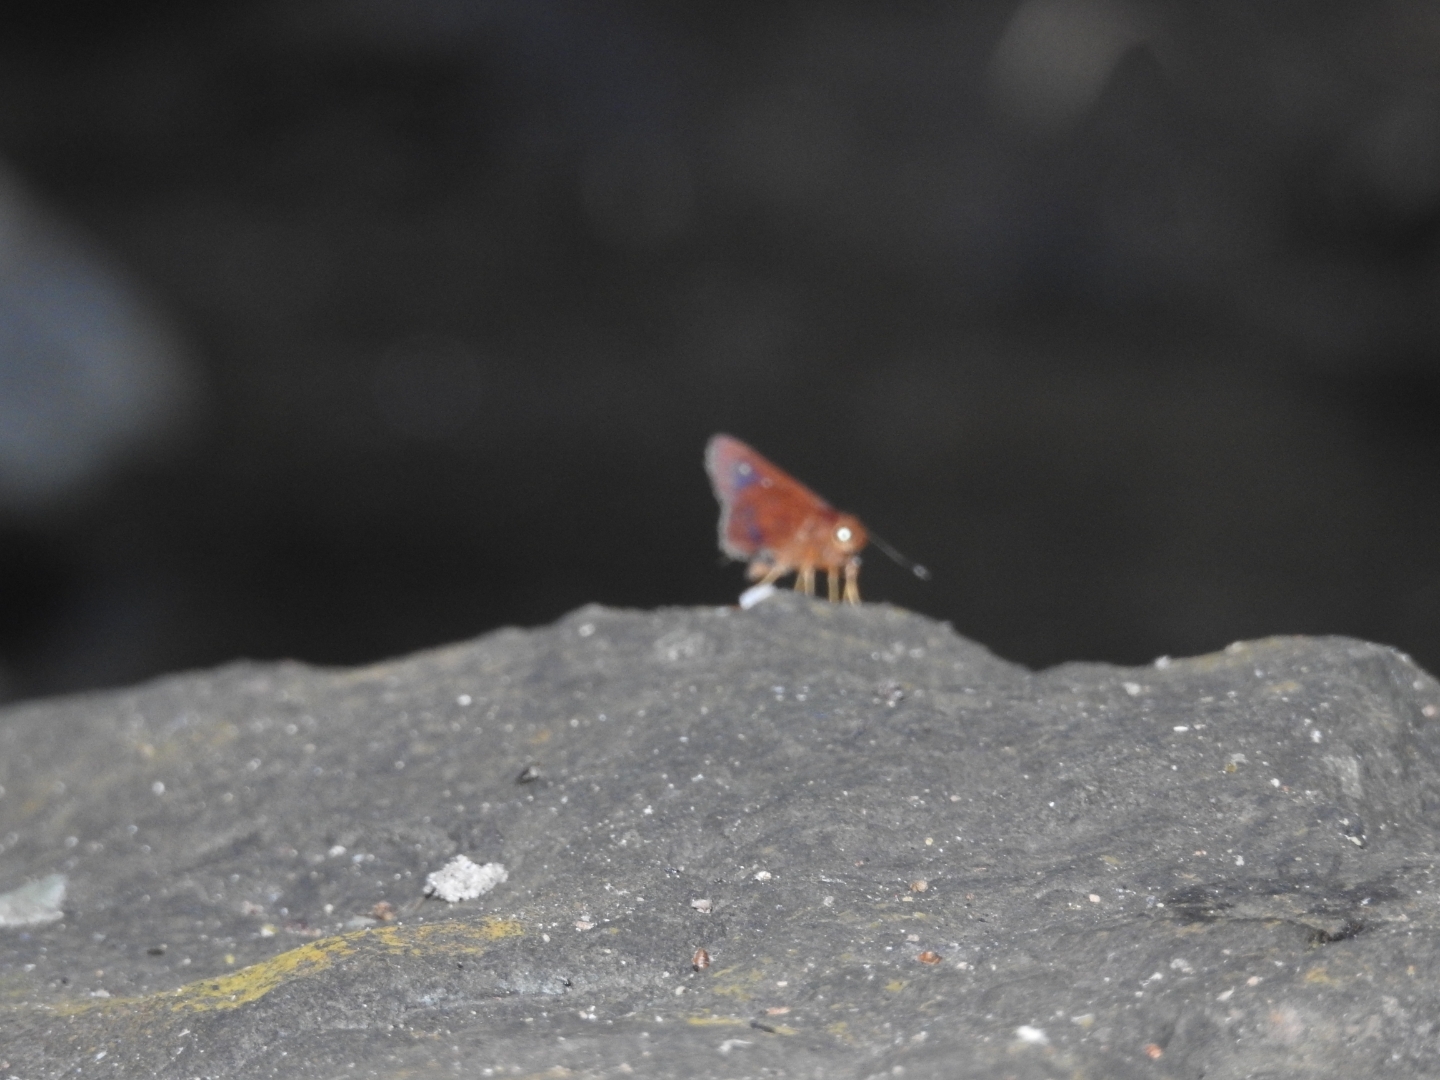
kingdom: Animalia
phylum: Arthropoda
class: Insecta
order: Lepidoptera
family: Hesperiidae
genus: Zographetus
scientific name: Zographetus ogygia
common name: Purple-spotted flitter
